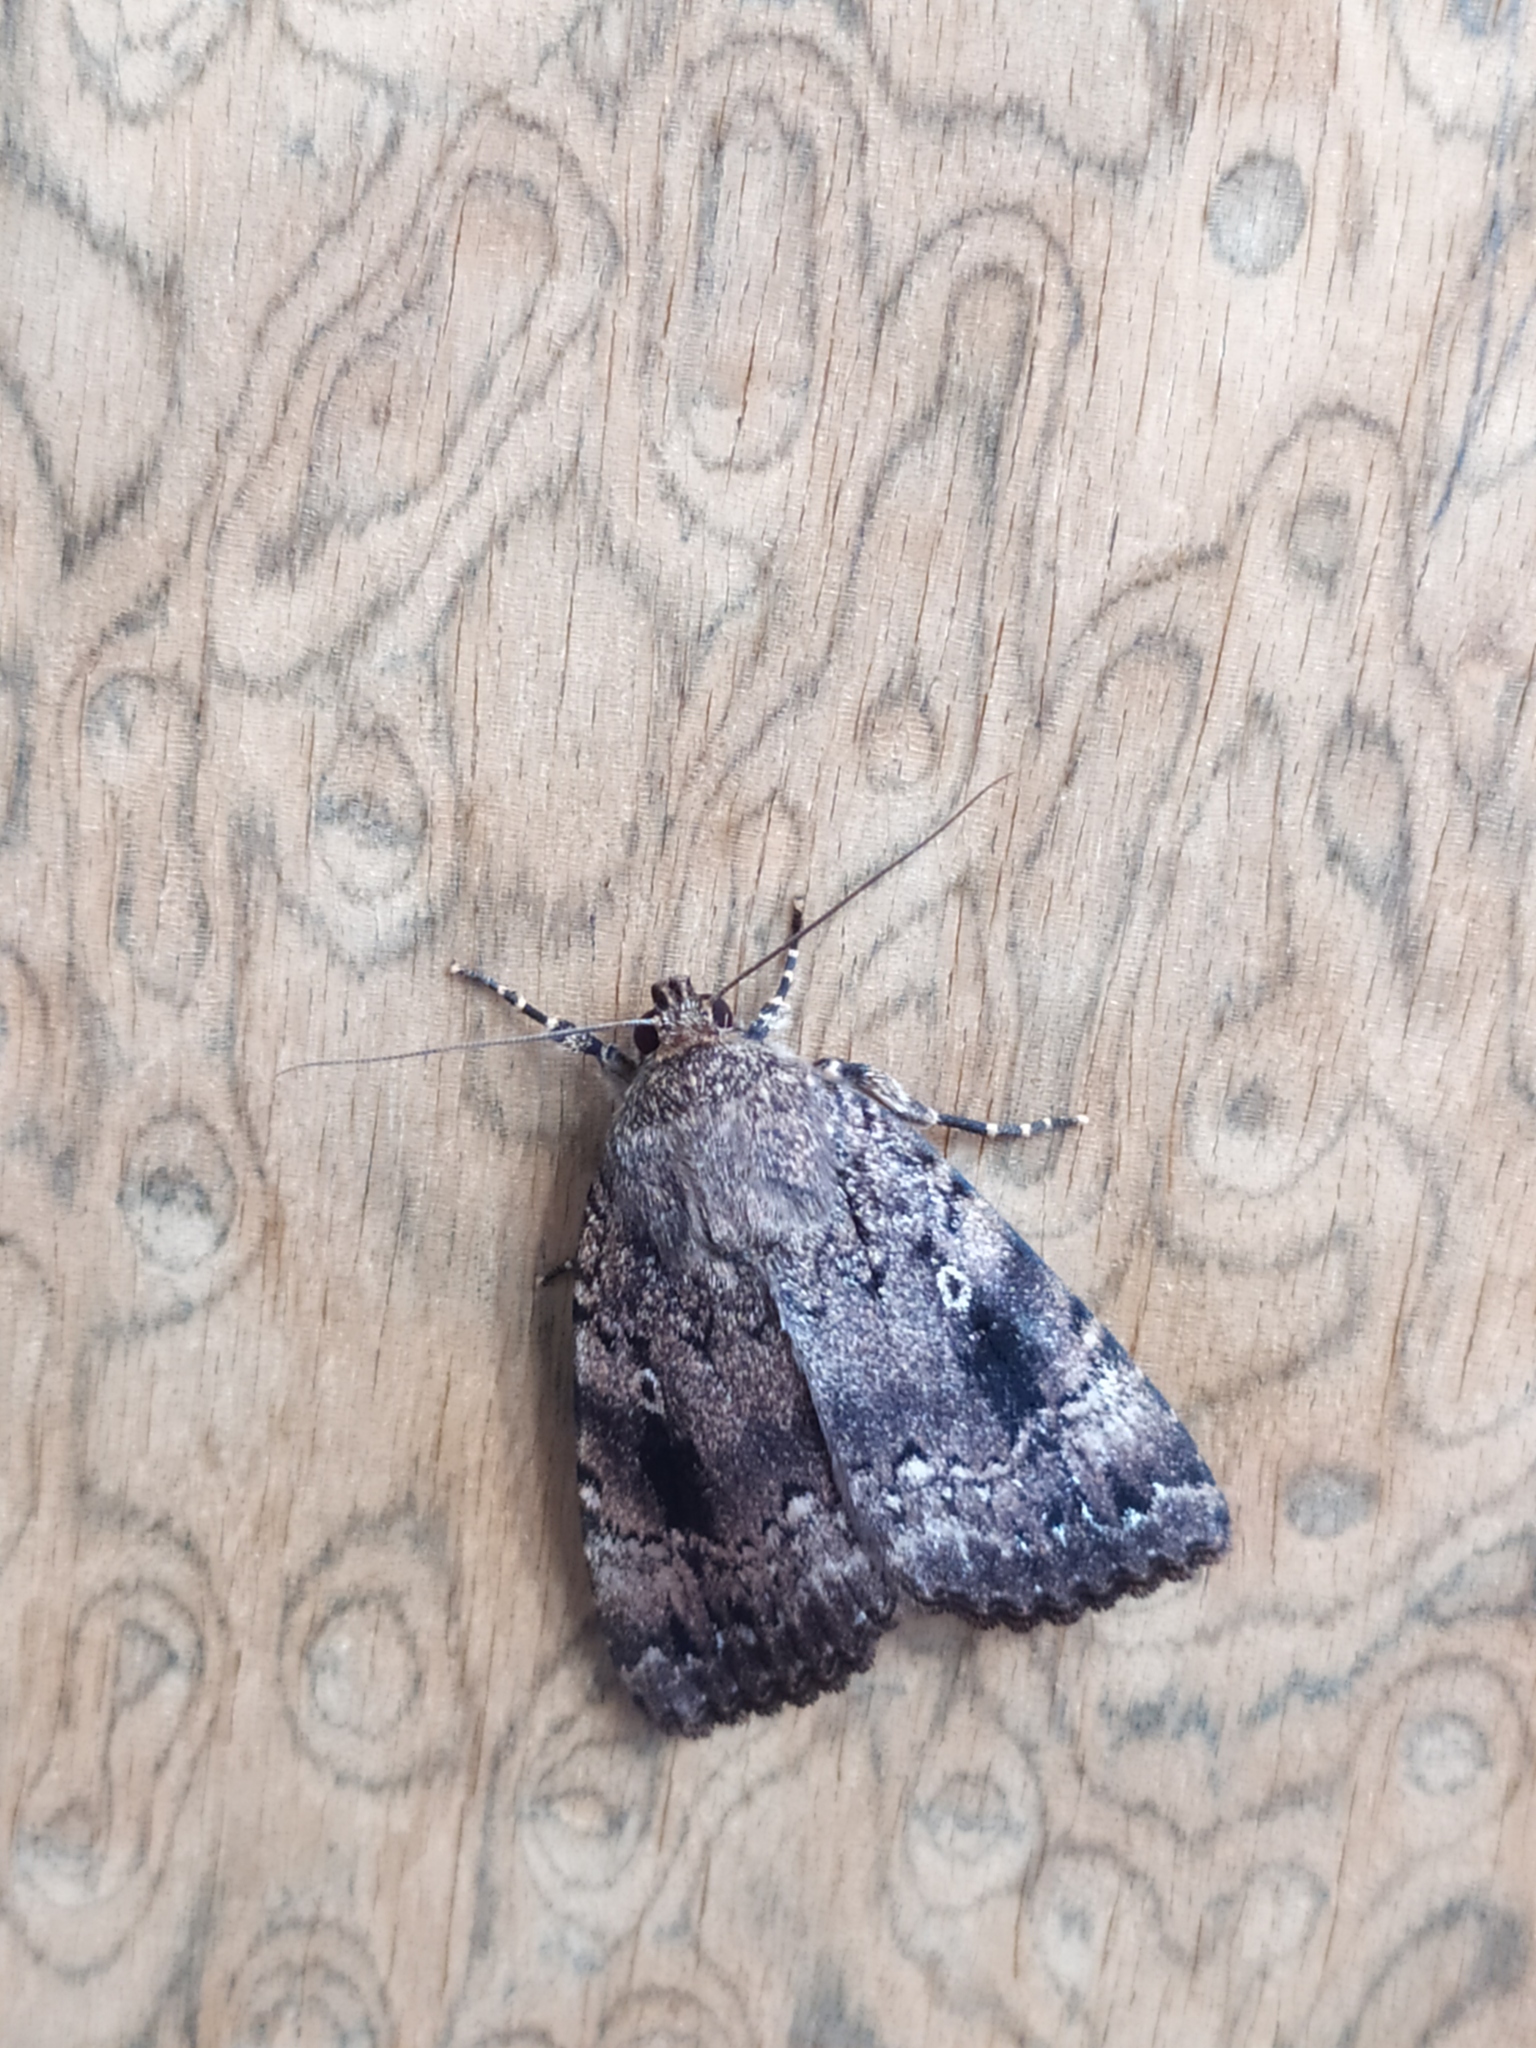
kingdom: Animalia
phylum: Arthropoda
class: Insecta
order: Lepidoptera
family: Noctuidae
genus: Amphipyra
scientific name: Amphipyra pyramidea
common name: Copper underwing
